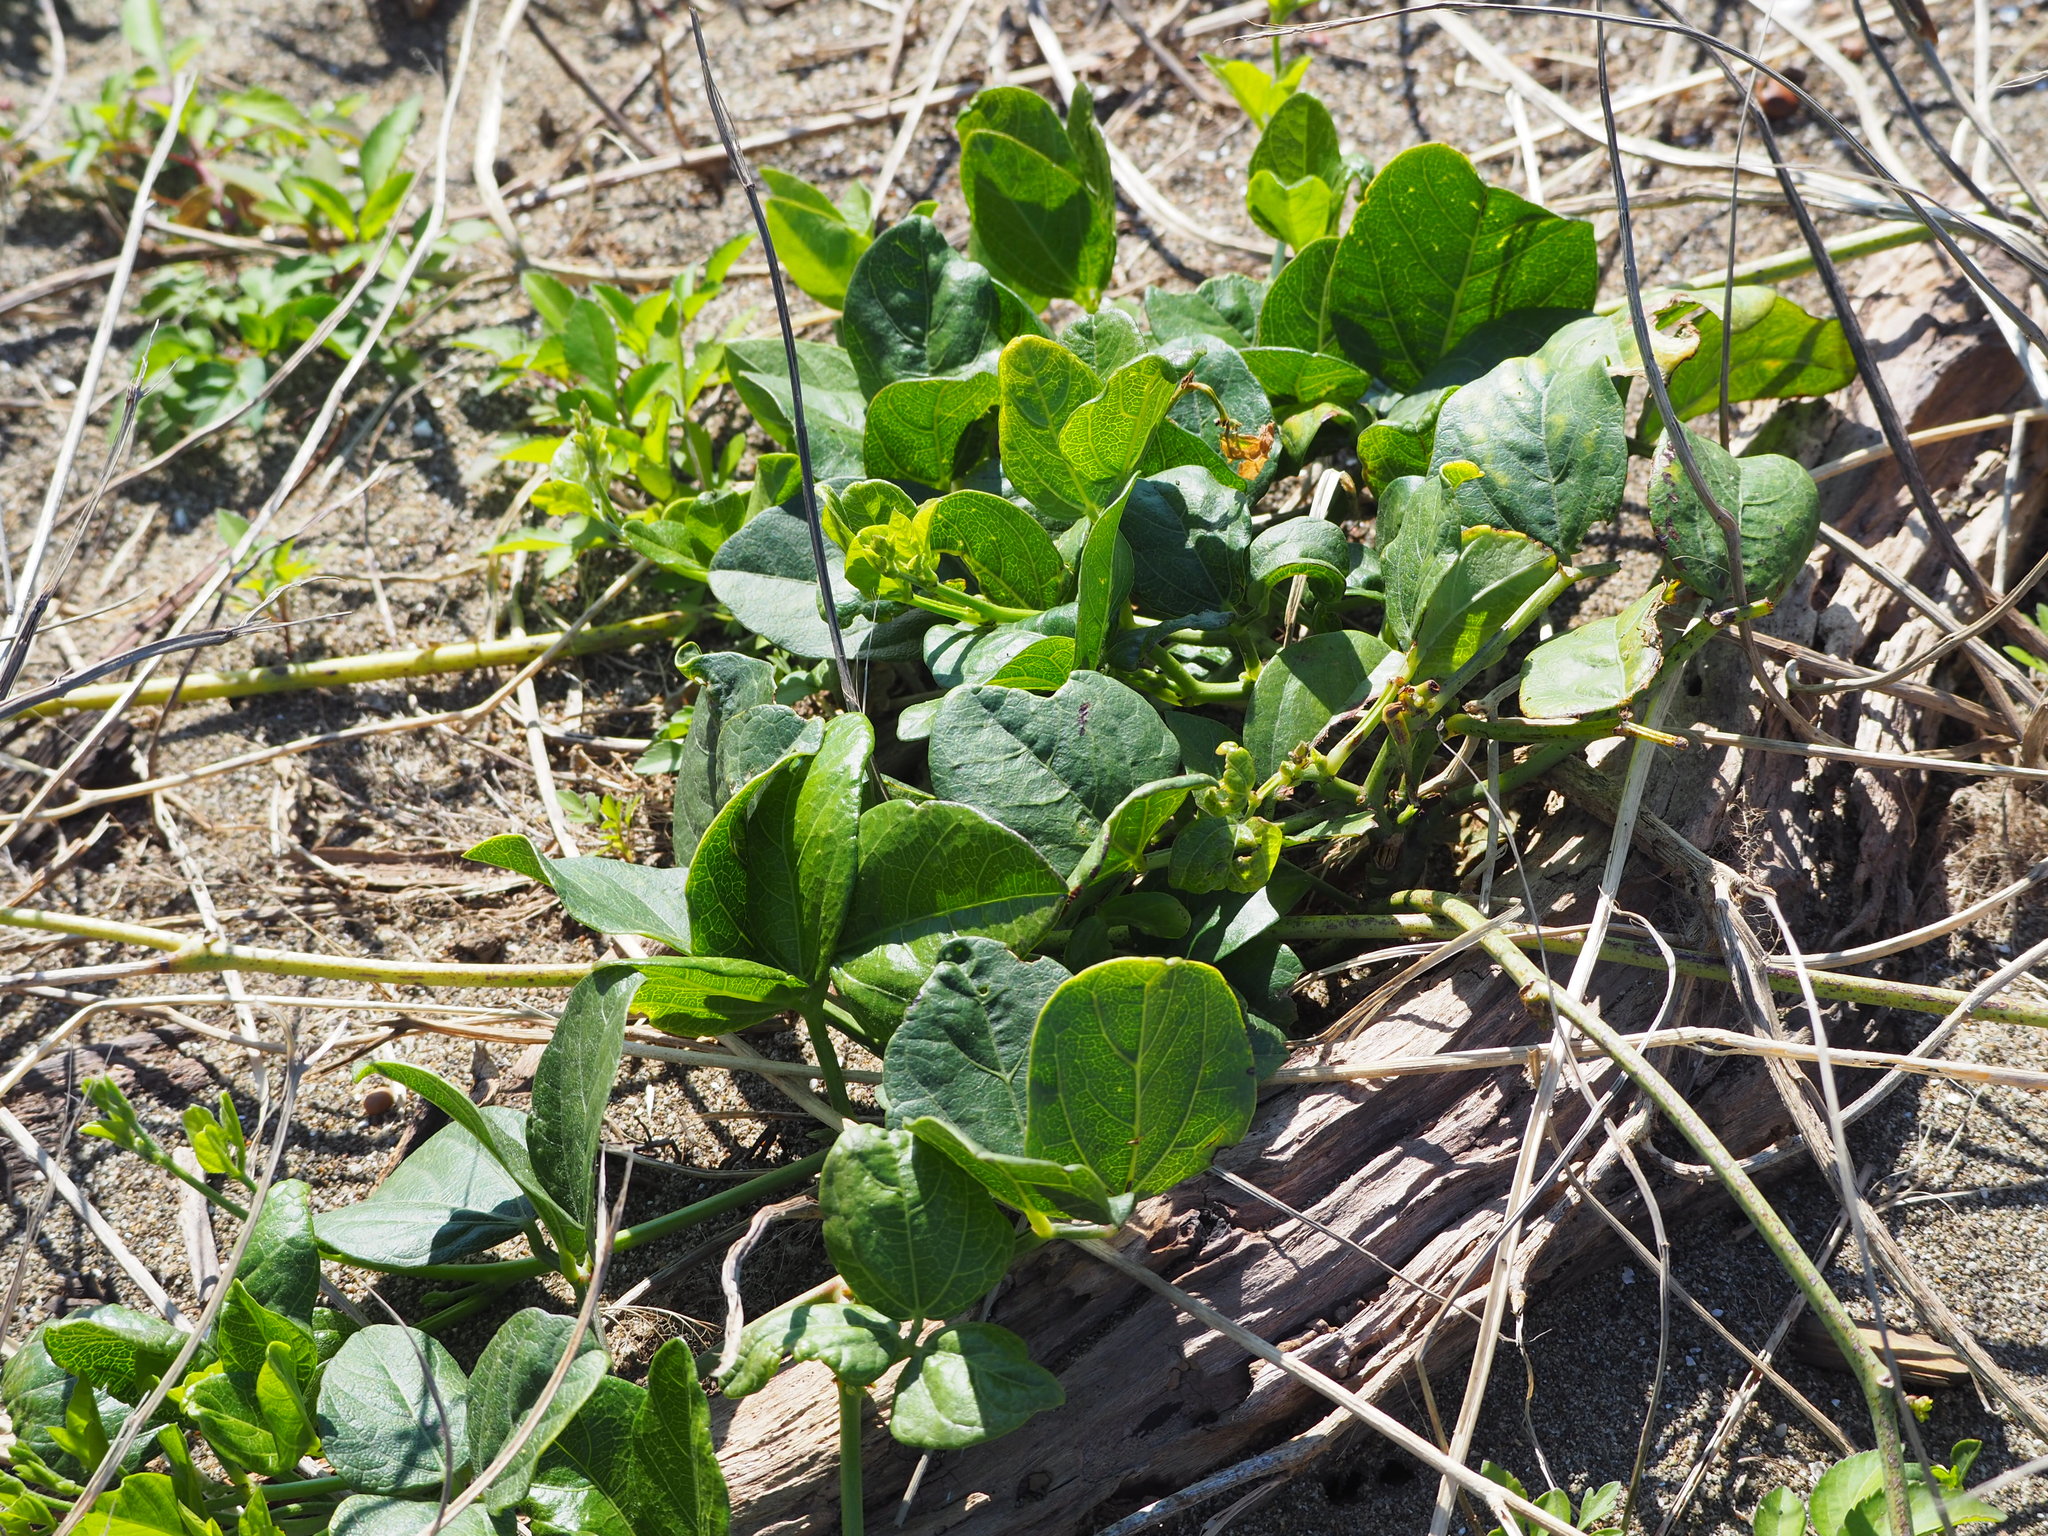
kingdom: Plantae
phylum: Tracheophyta
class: Magnoliopsida
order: Fabales
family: Fabaceae
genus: Vigna
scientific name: Vigna marina
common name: Dune-bean
